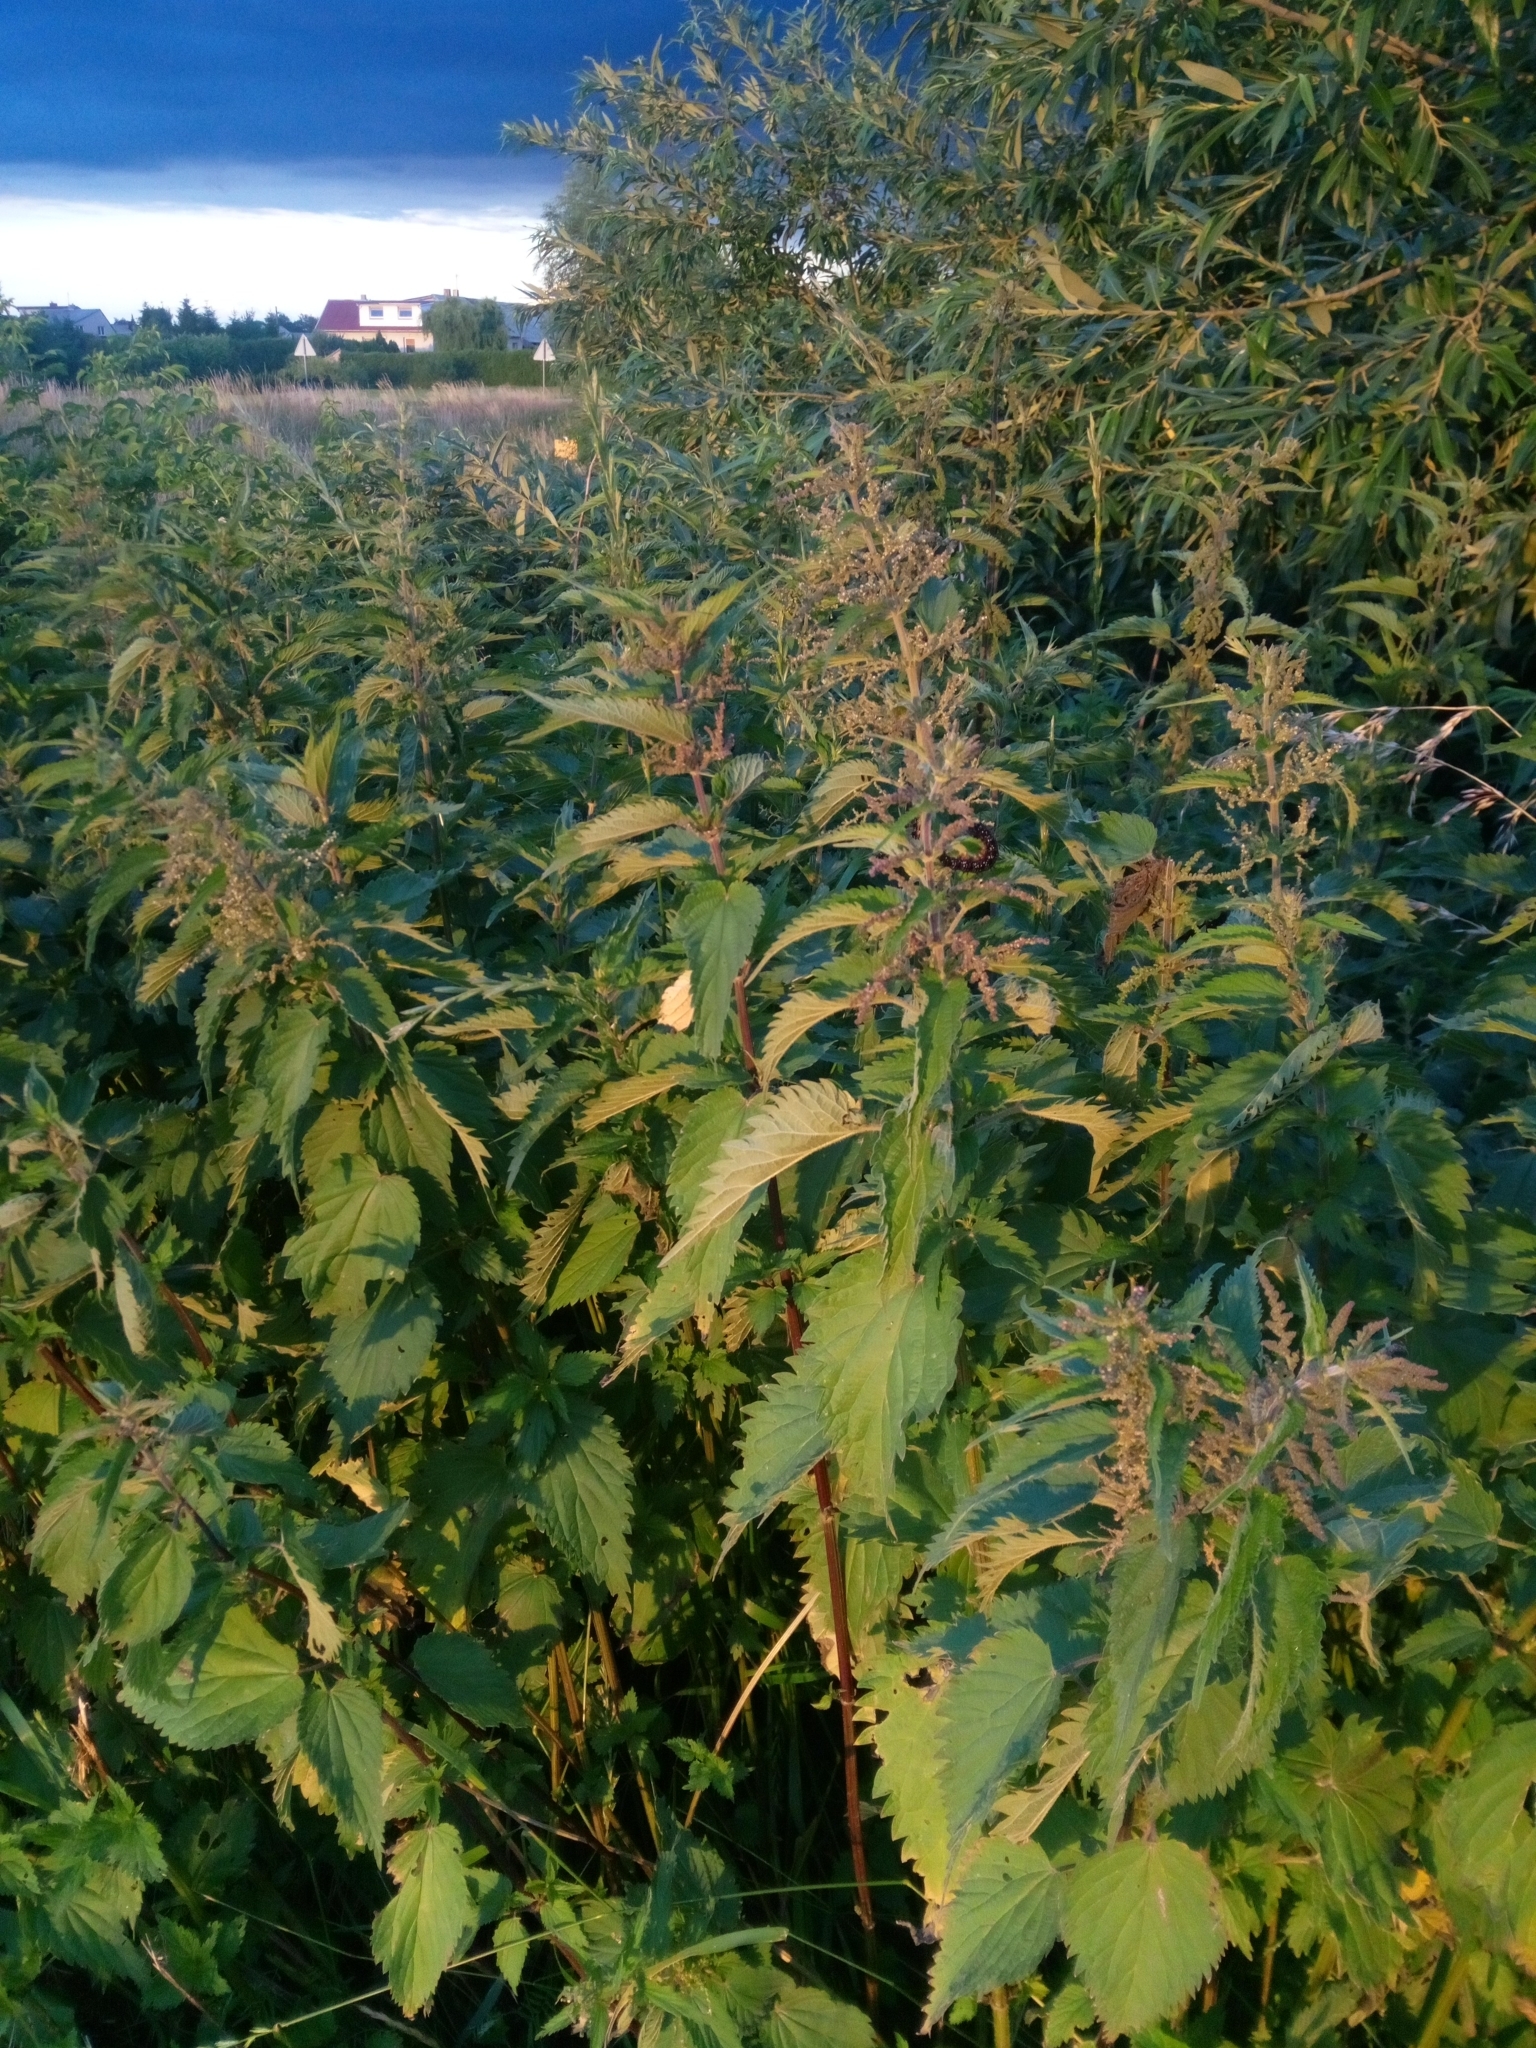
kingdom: Plantae
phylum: Tracheophyta
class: Magnoliopsida
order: Rosales
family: Urticaceae
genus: Urtica
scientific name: Urtica dioica
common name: Common nettle
